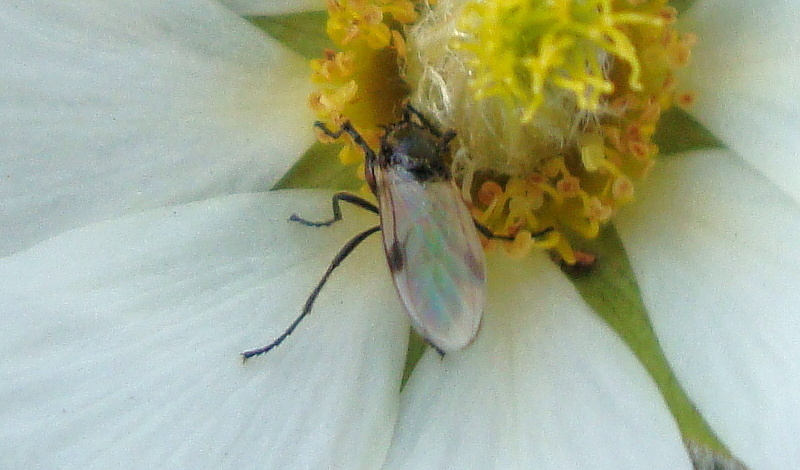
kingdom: Animalia
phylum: Arthropoda
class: Insecta
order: Diptera
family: Bibionidae
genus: Dilophus
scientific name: Dilophus femoratus
